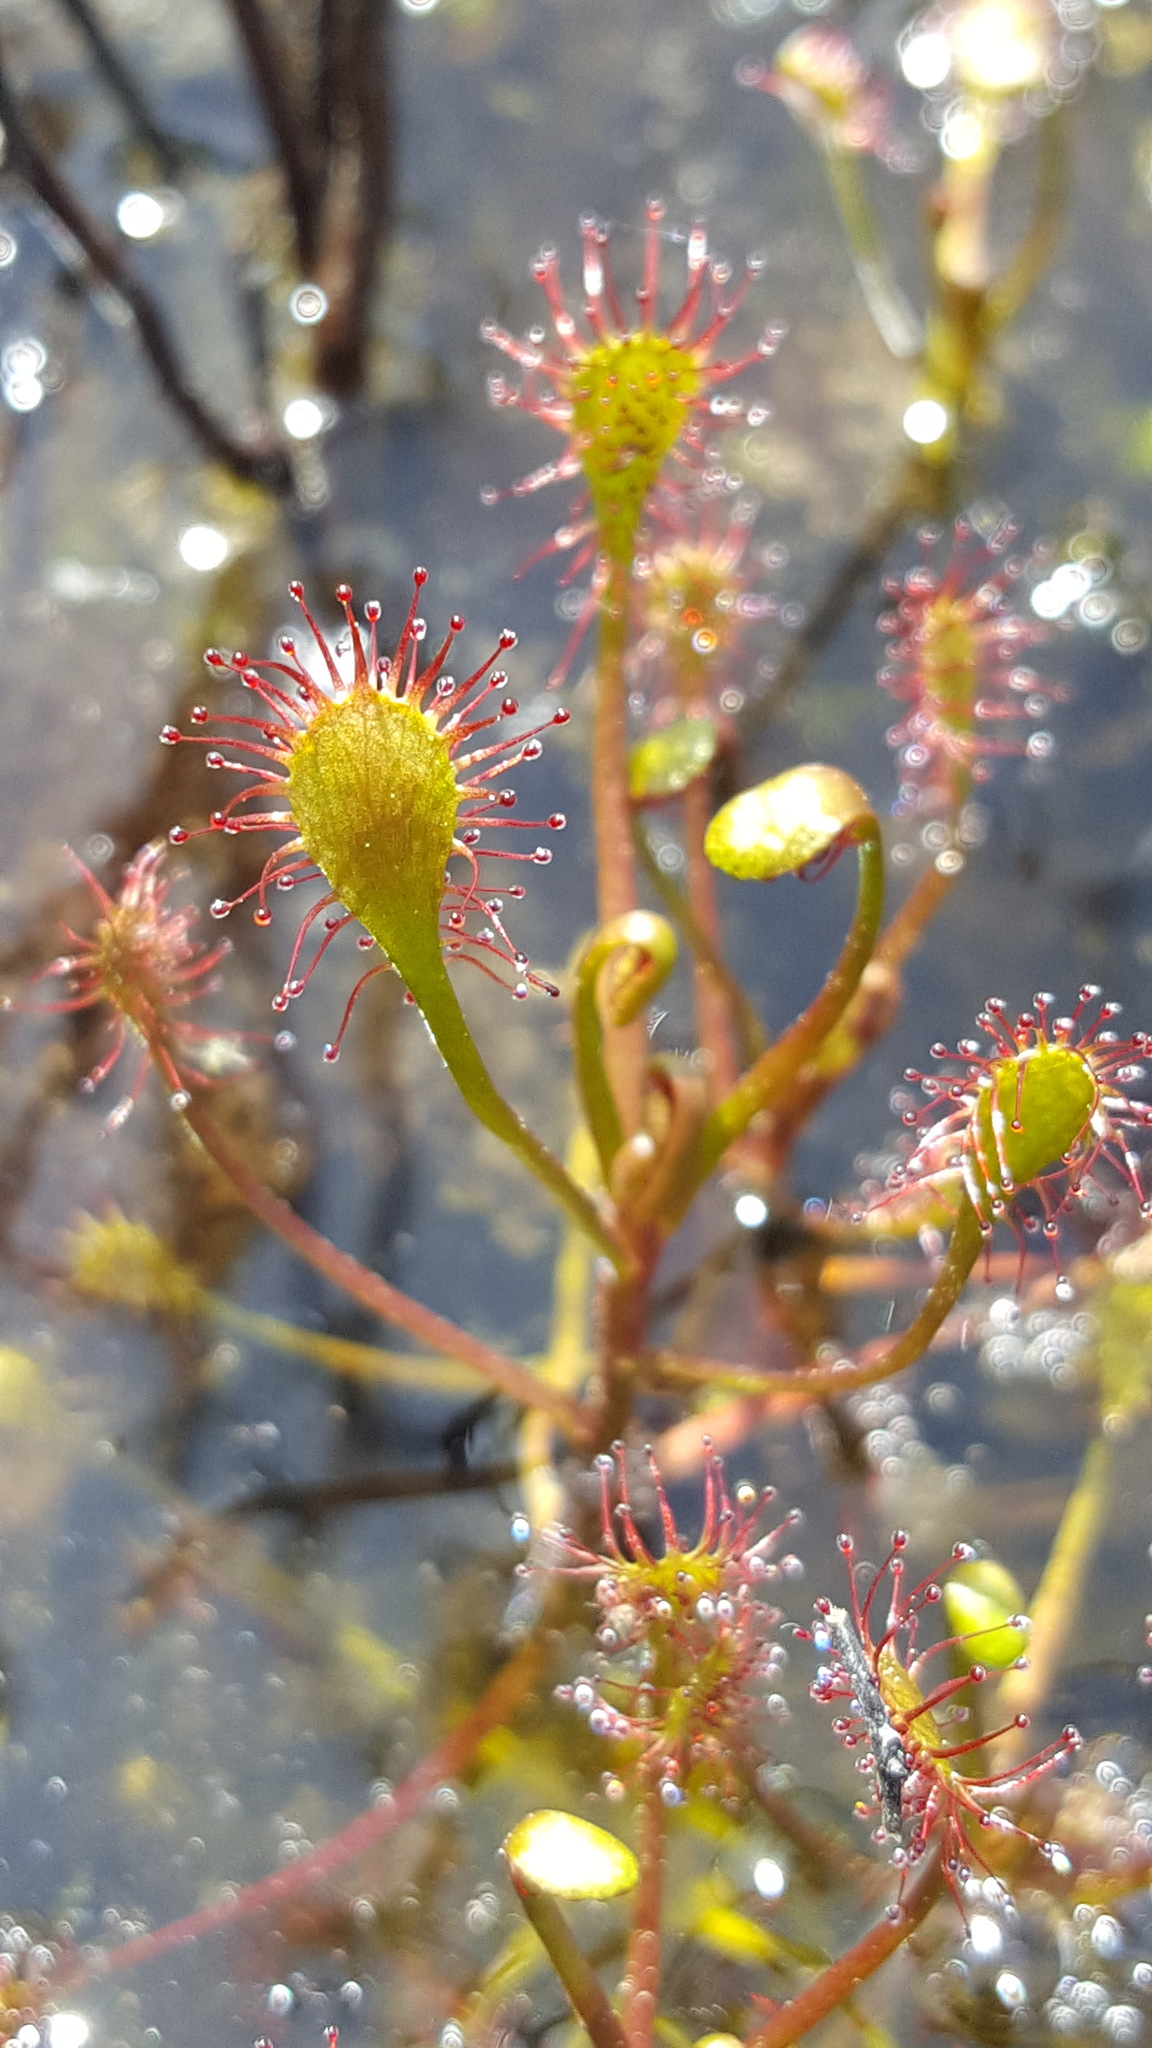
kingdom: Plantae
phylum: Tracheophyta
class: Magnoliopsida
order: Caryophyllales
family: Droseraceae
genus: Drosera
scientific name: Drosera intermedia
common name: Oblong-leaved sundew
